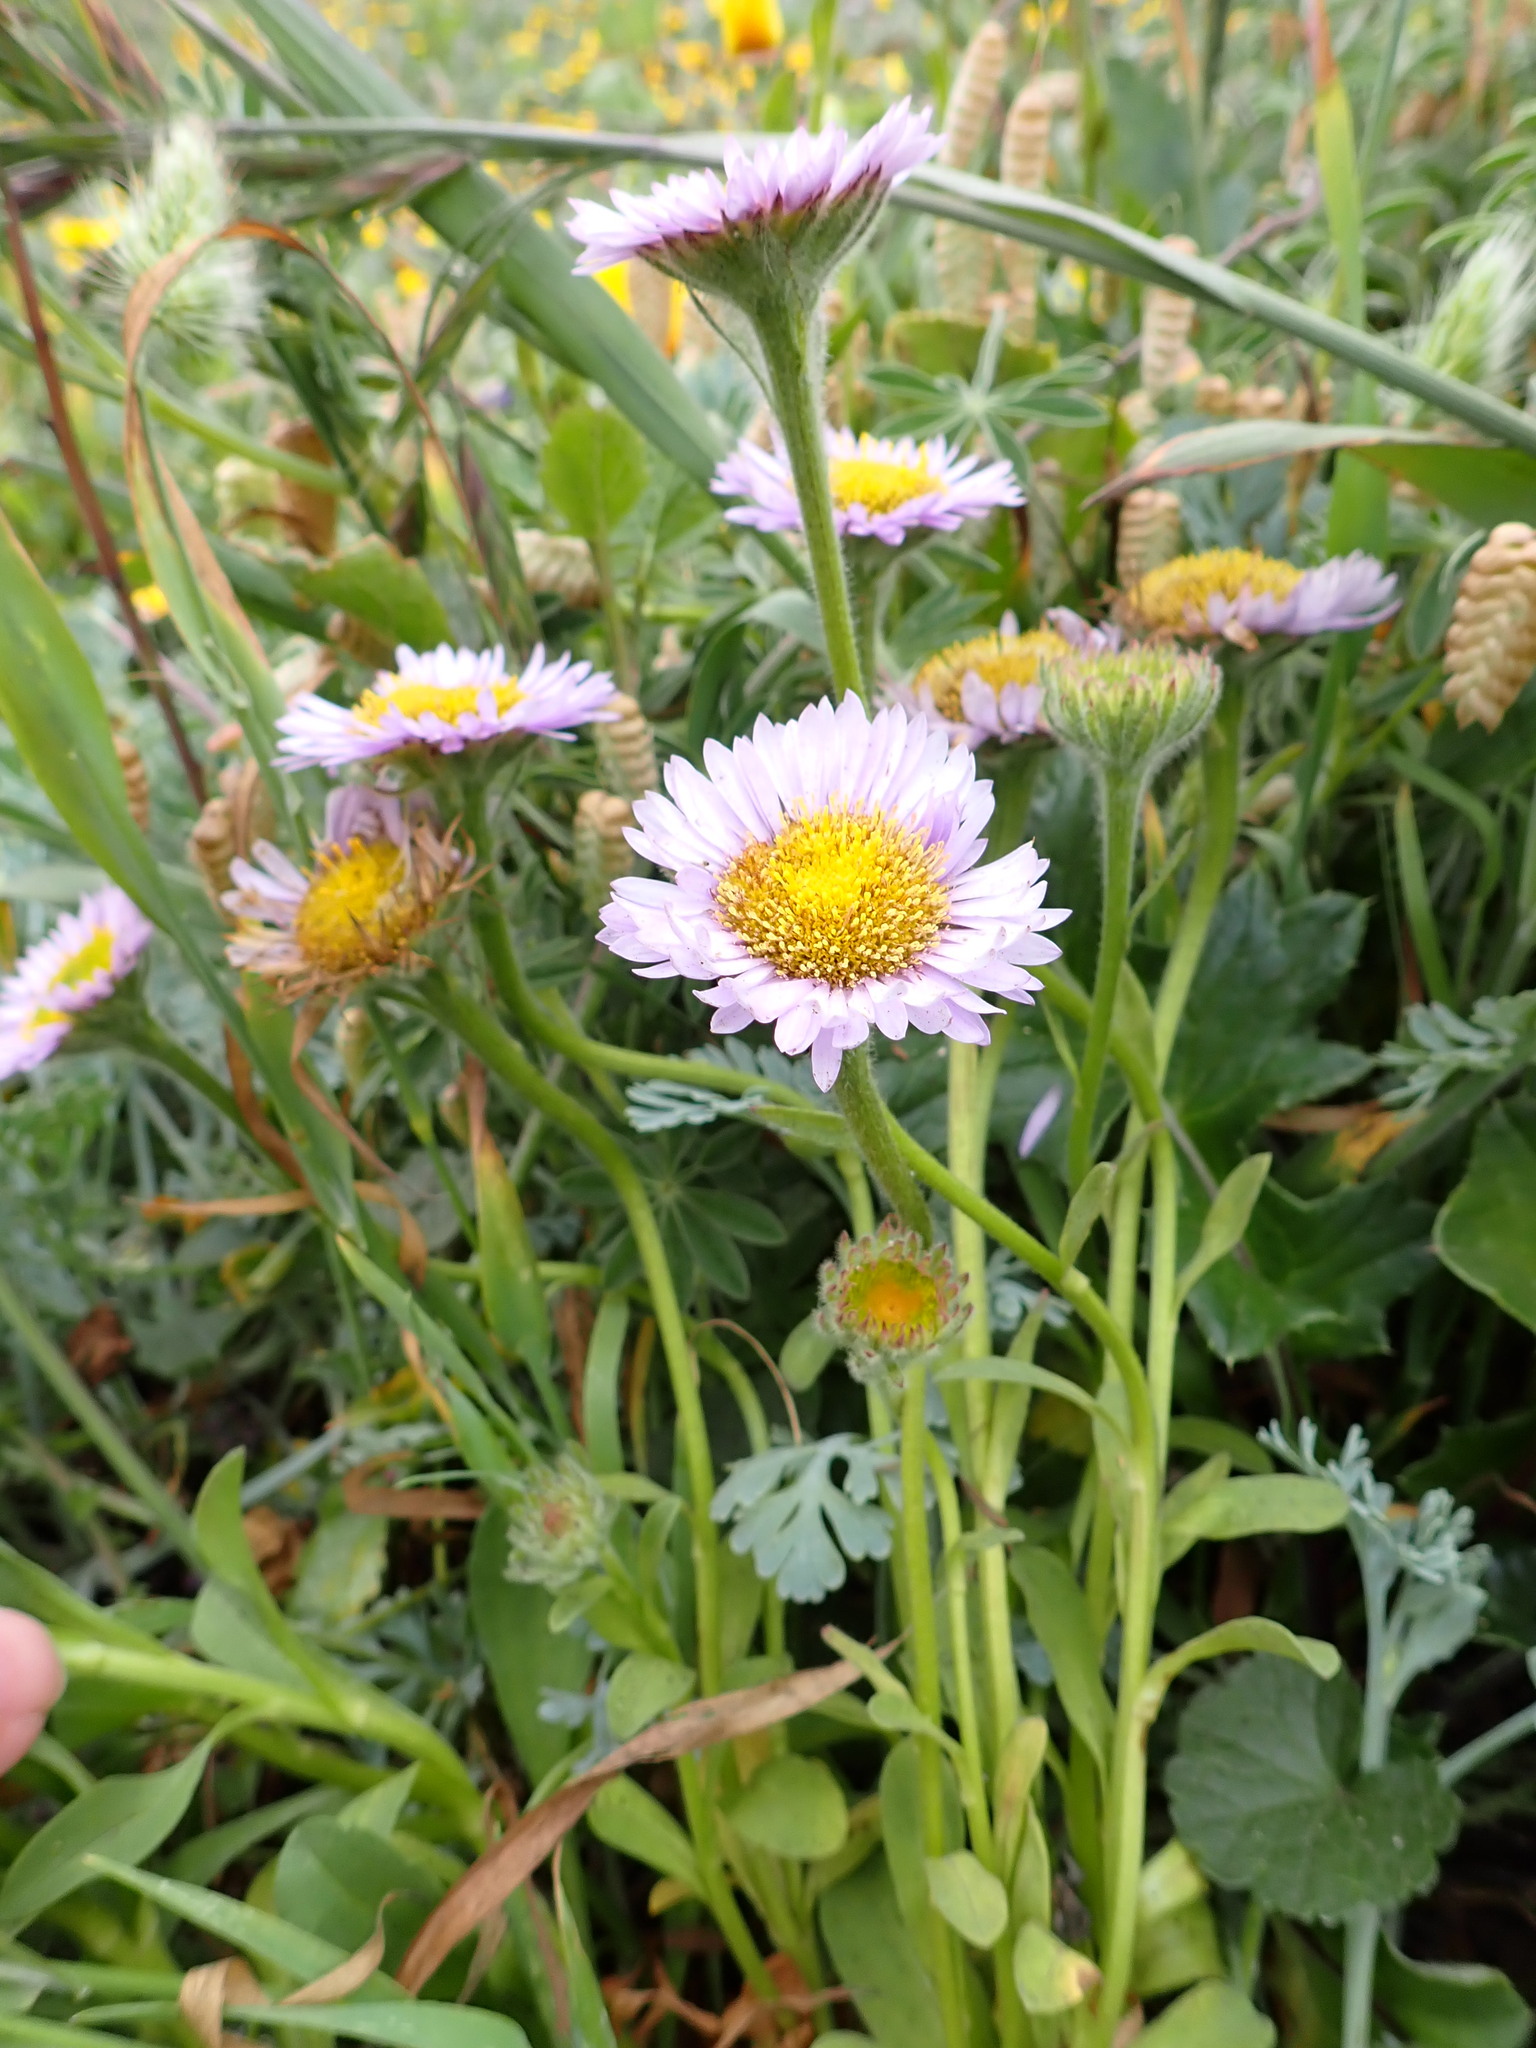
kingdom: Plantae
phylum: Tracheophyta
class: Magnoliopsida
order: Asterales
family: Asteraceae
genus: Erigeron
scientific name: Erigeron glaucus
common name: Seaside daisy
